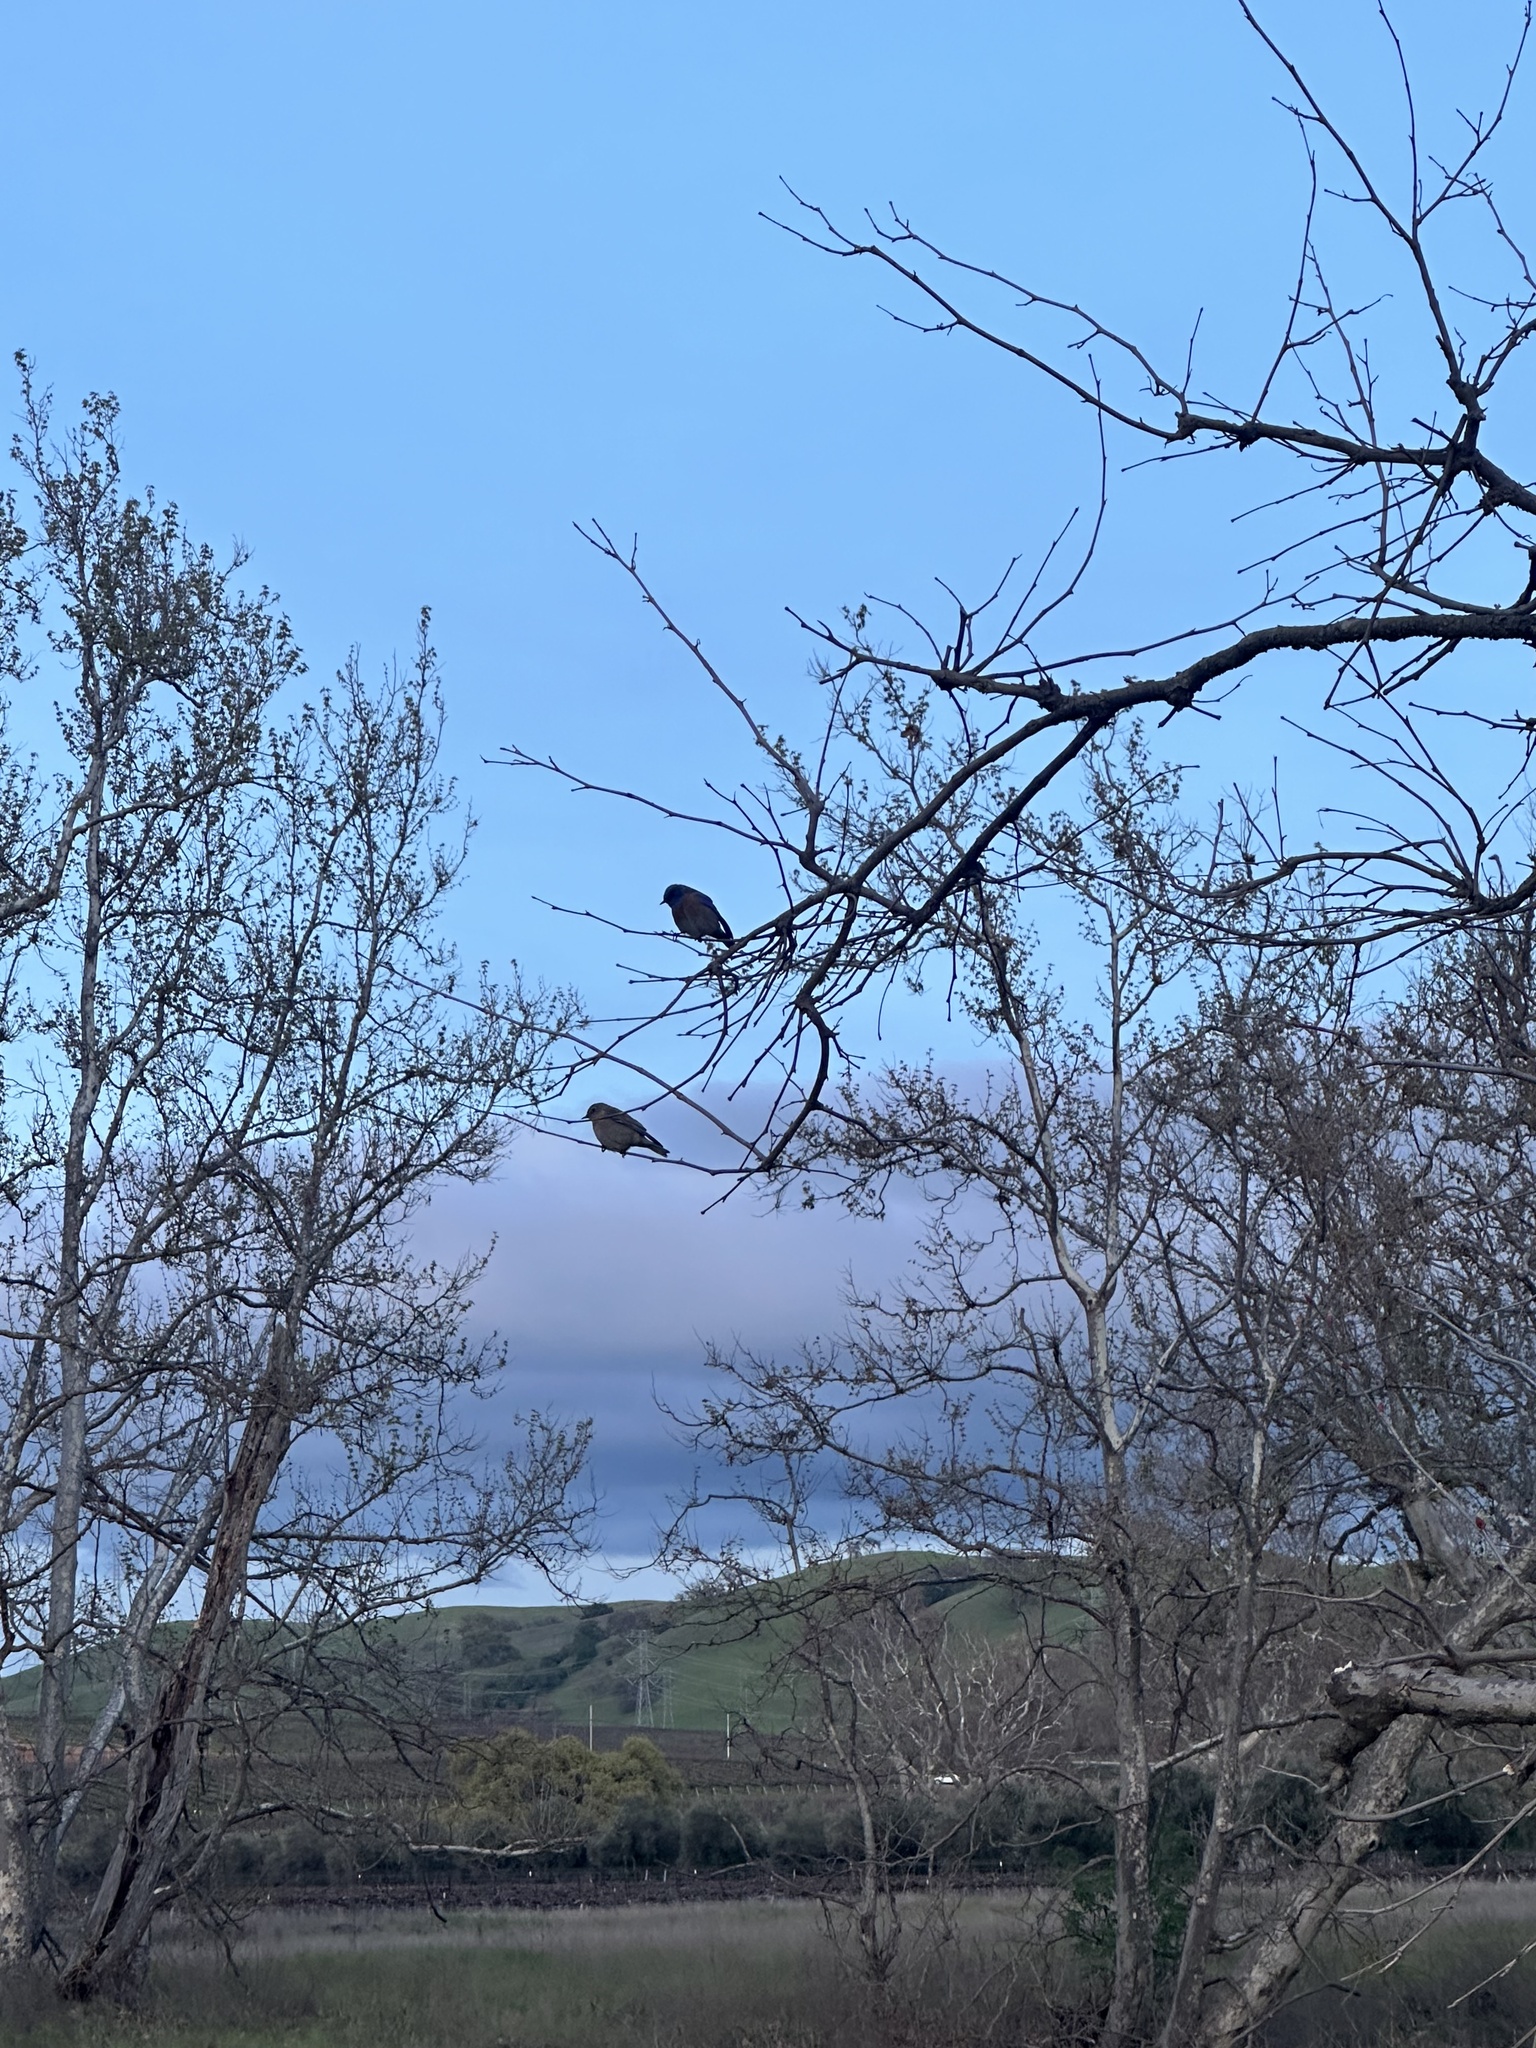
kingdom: Animalia
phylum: Chordata
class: Aves
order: Passeriformes
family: Turdidae
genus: Sialia
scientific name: Sialia mexicana
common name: Western bluebird
